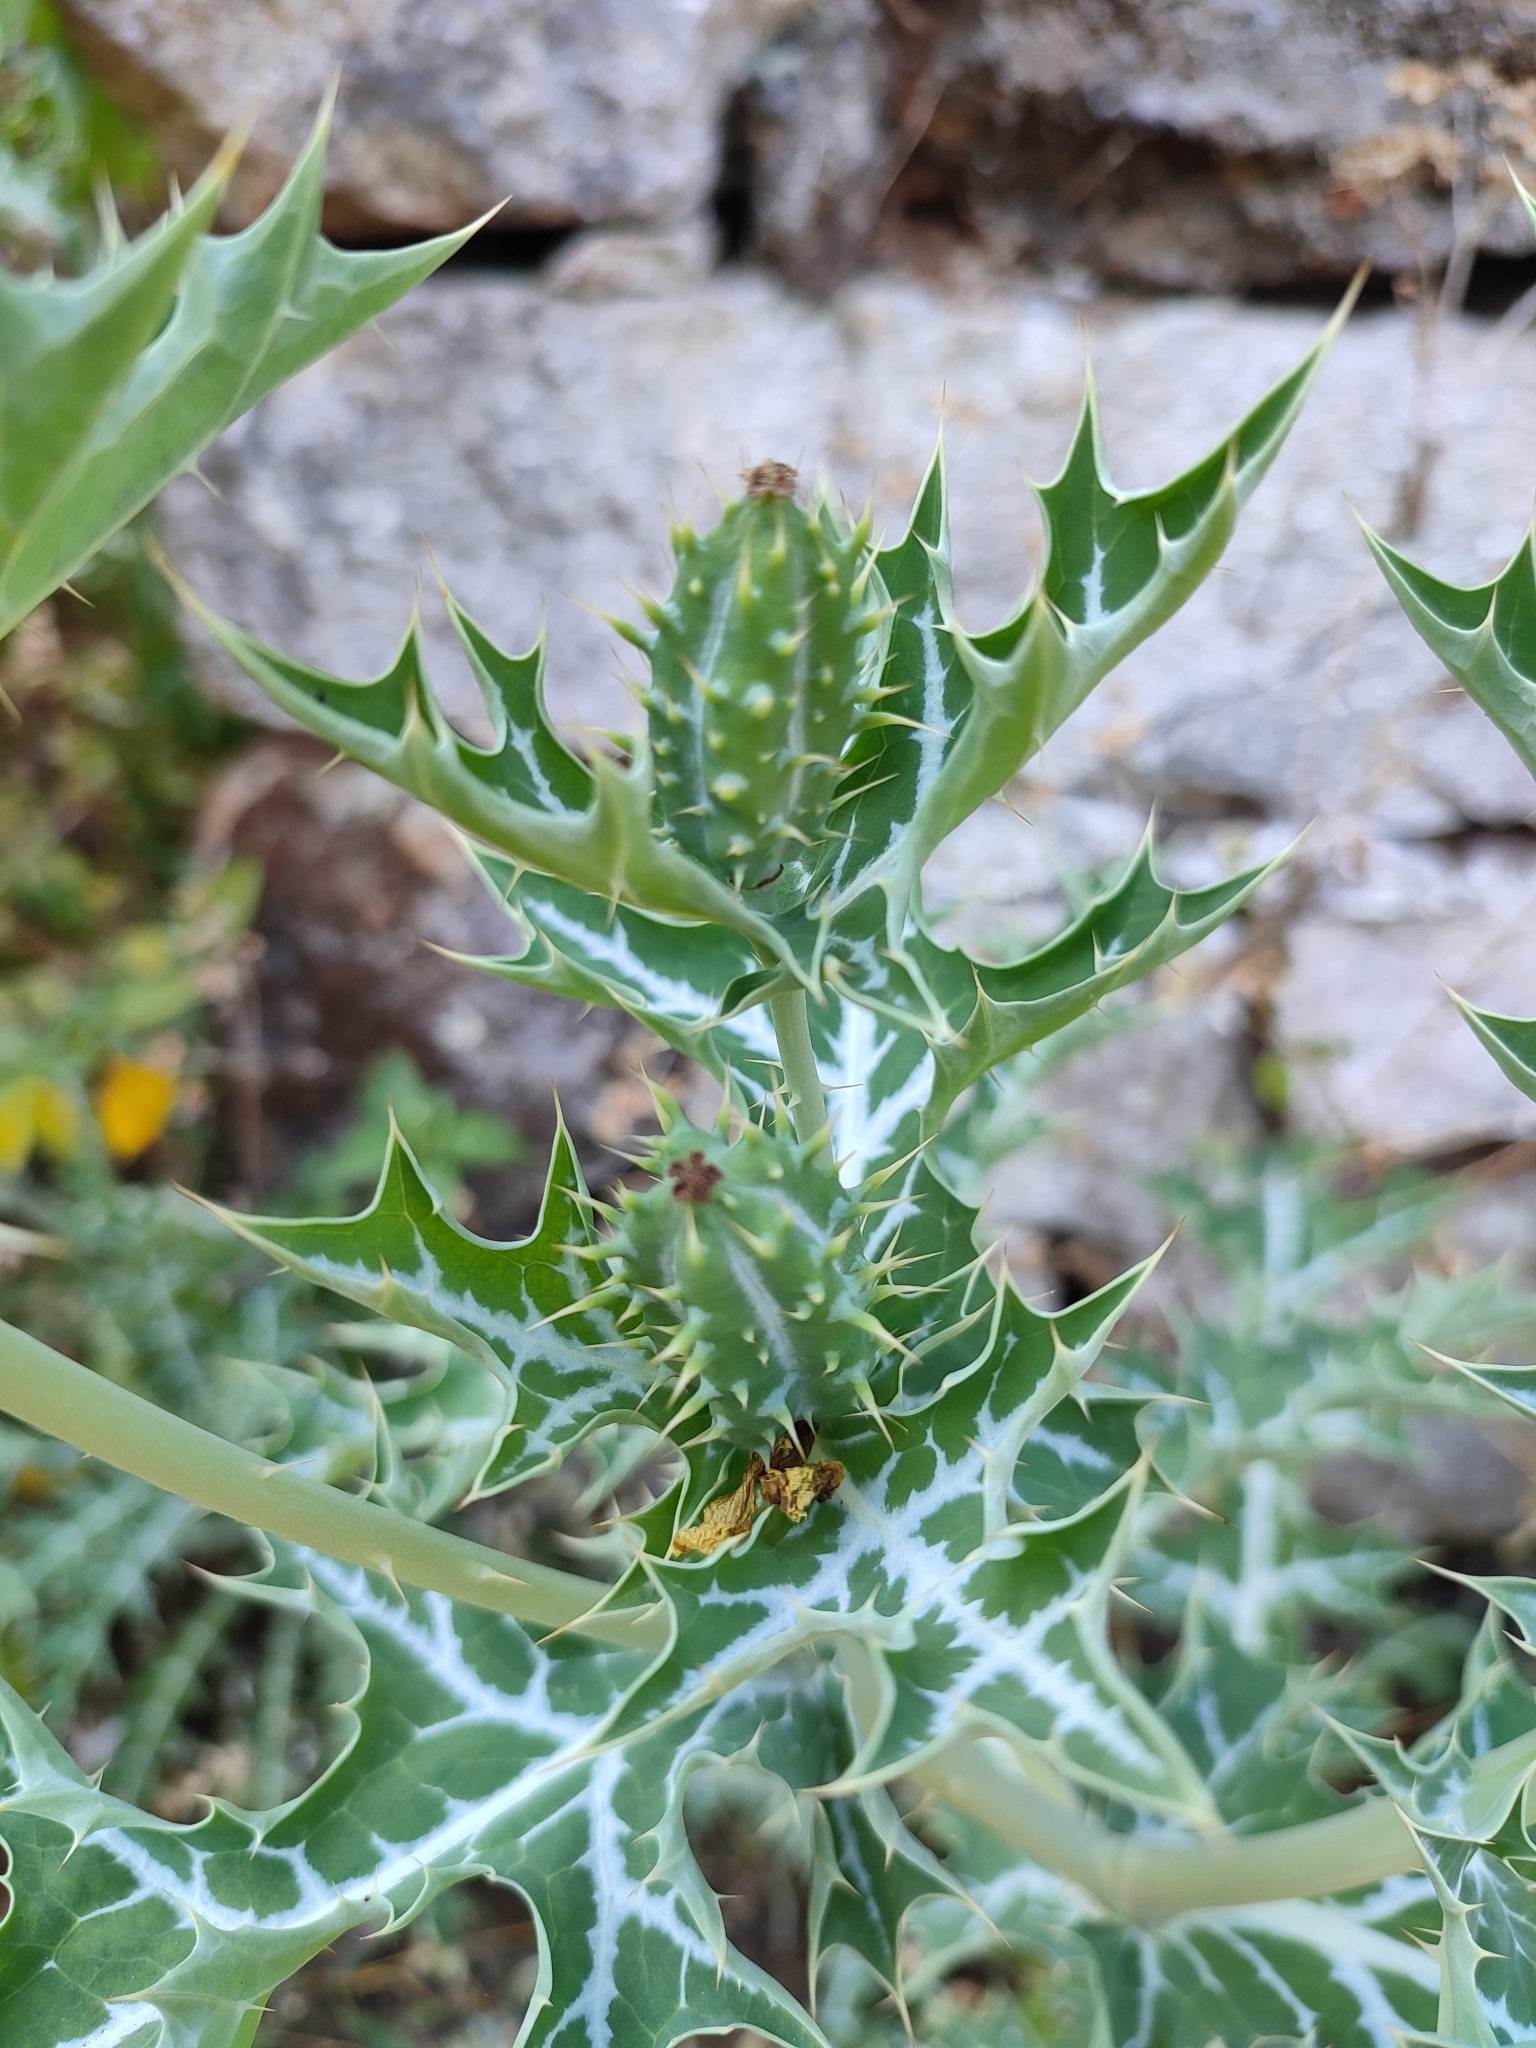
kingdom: Plantae
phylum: Tracheophyta
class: Magnoliopsida
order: Ranunculales
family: Papaveraceae
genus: Argemone
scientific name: Argemone mexicana
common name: Mexican poppy
